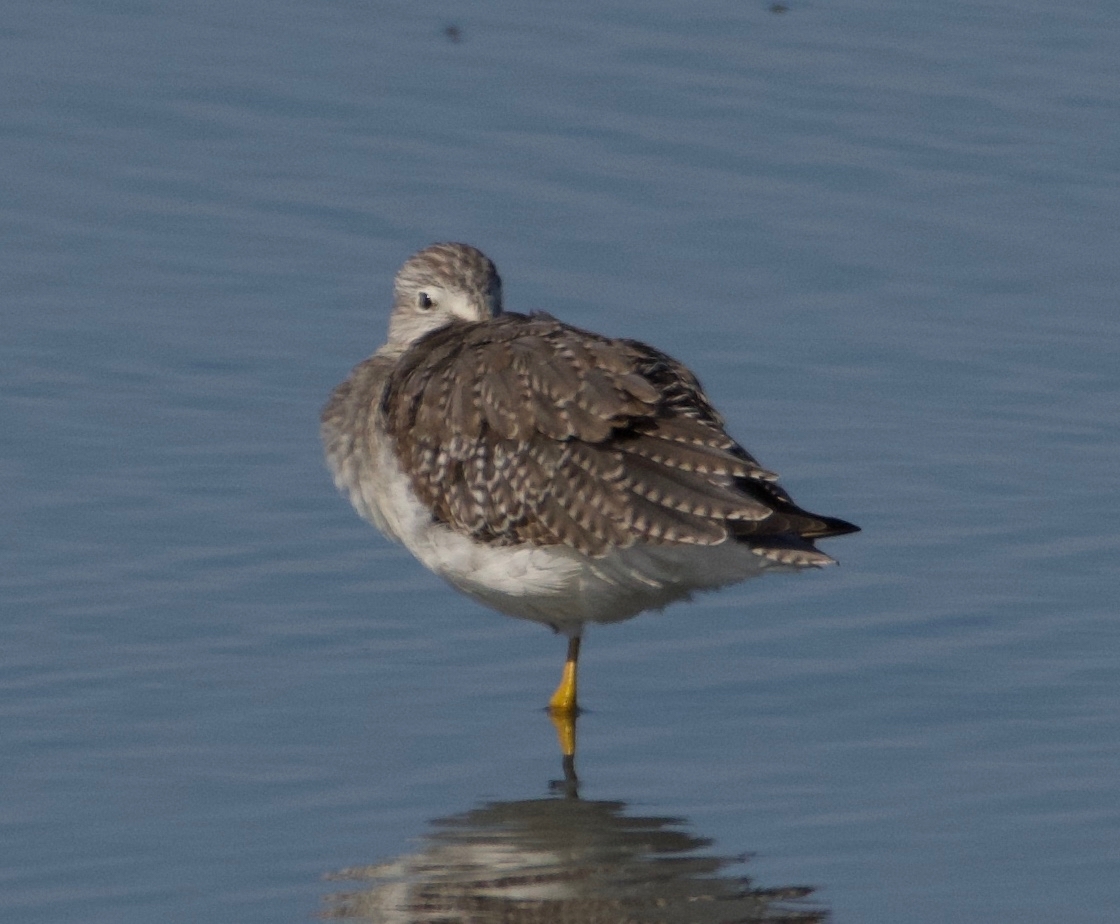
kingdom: Animalia
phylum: Chordata
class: Aves
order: Charadriiformes
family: Scolopacidae
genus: Tringa
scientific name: Tringa melanoleuca
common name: Greater yellowlegs
